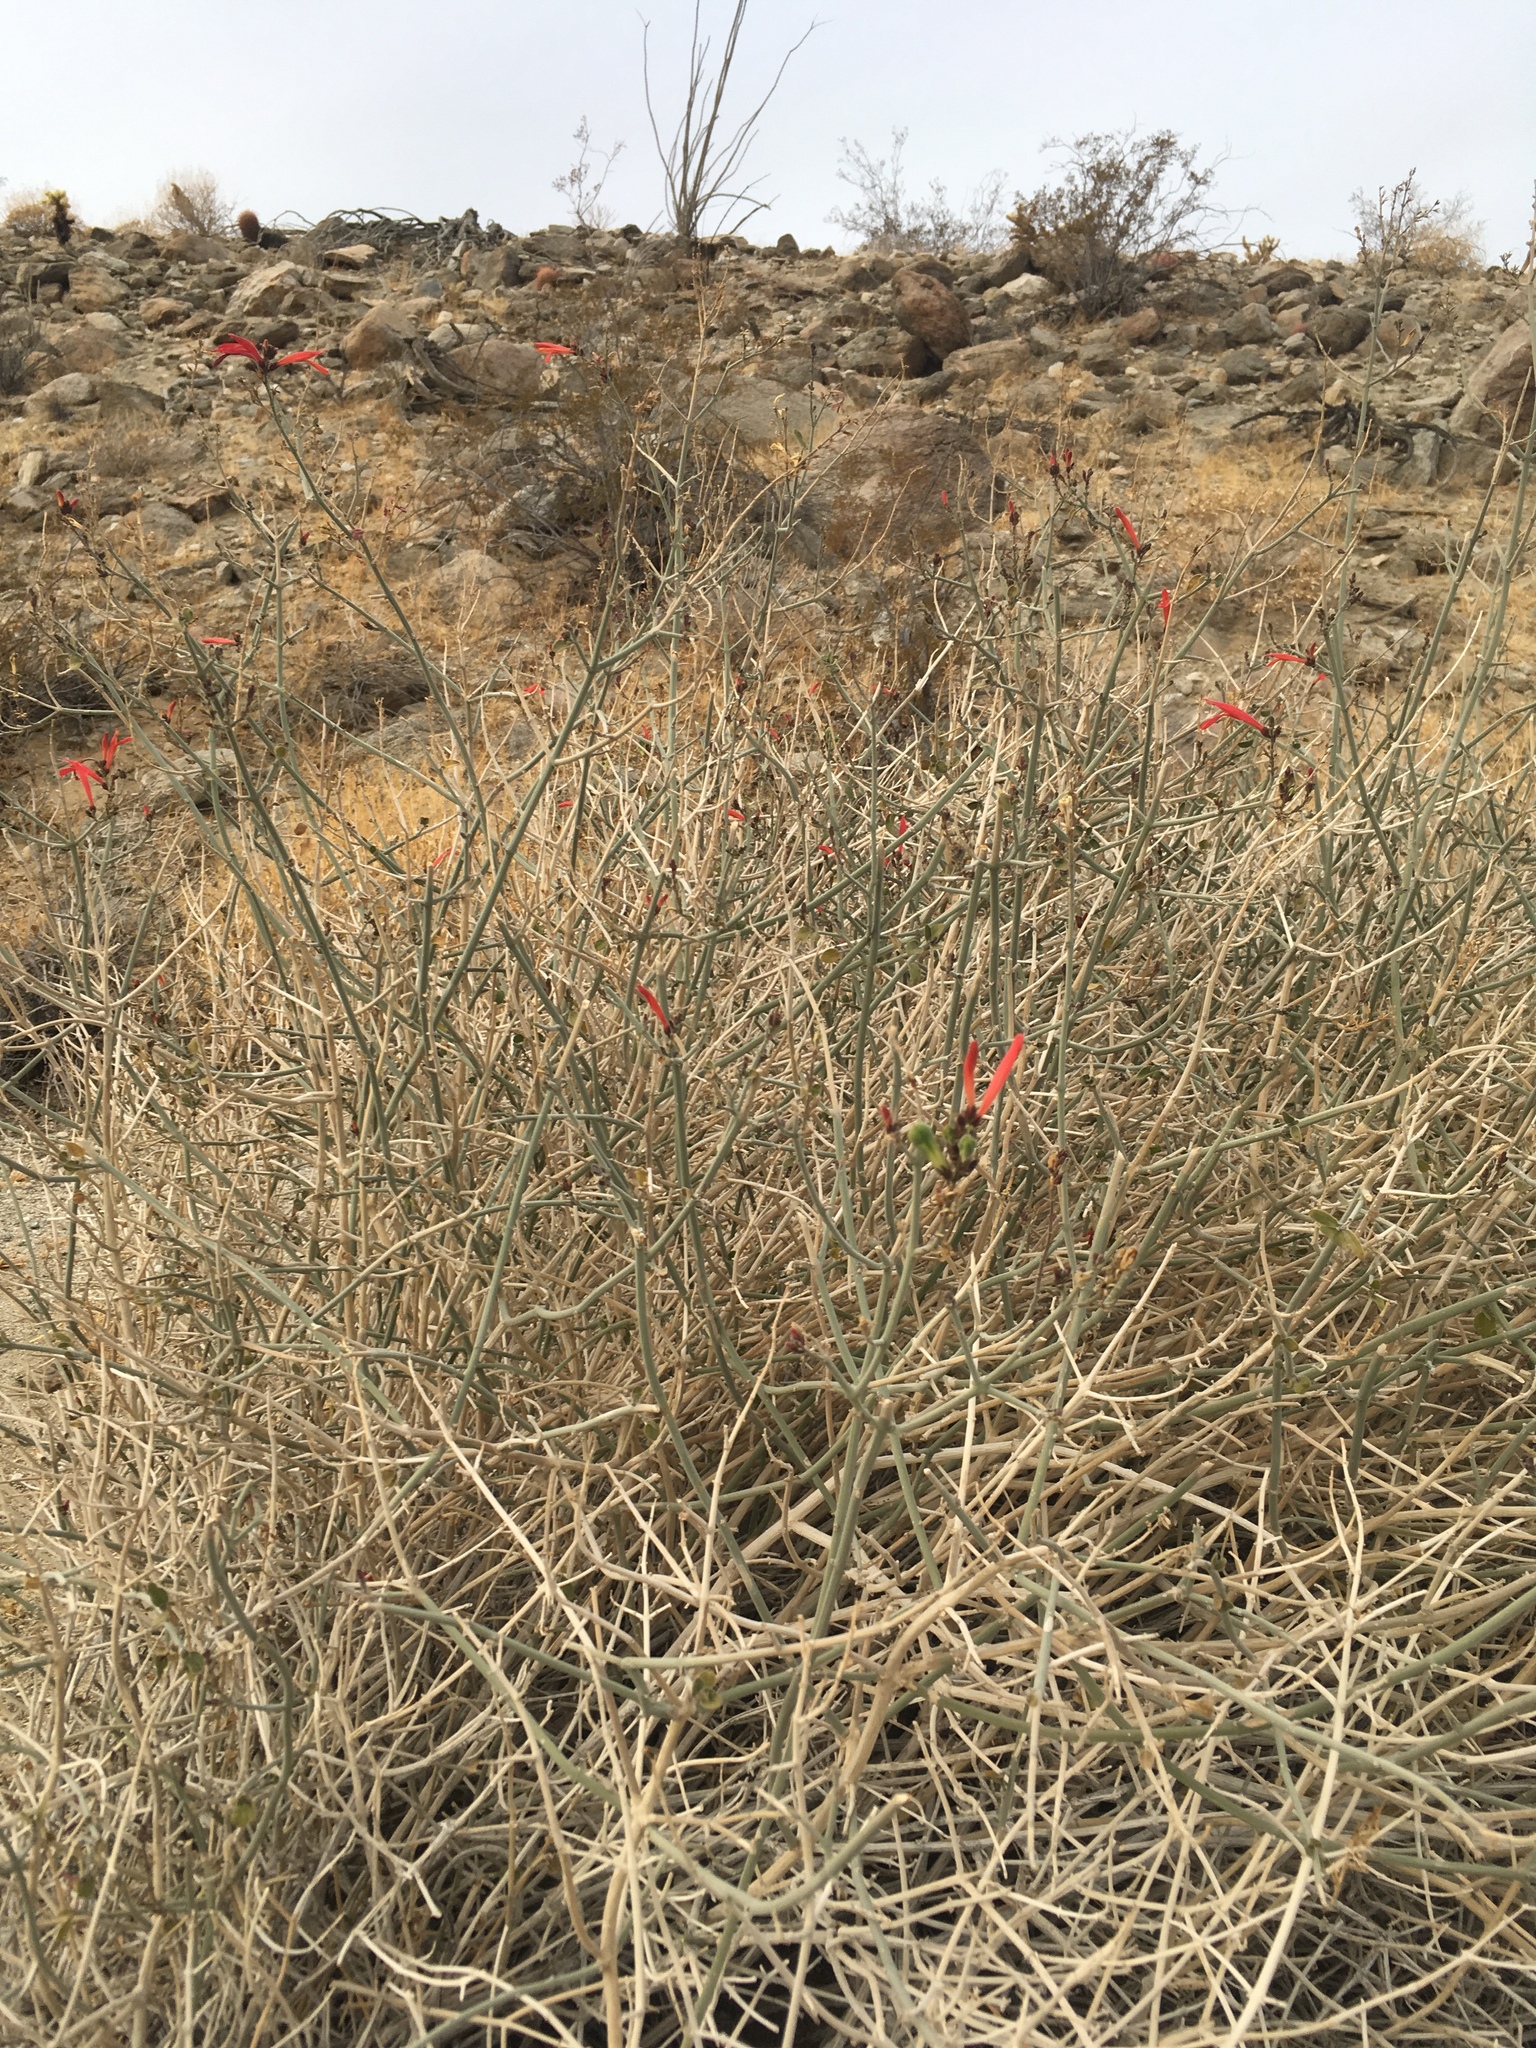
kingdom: Plantae
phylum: Tracheophyta
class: Magnoliopsida
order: Lamiales
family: Acanthaceae
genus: Justicia
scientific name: Justicia californica
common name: Chuparosa-honeysuckle
